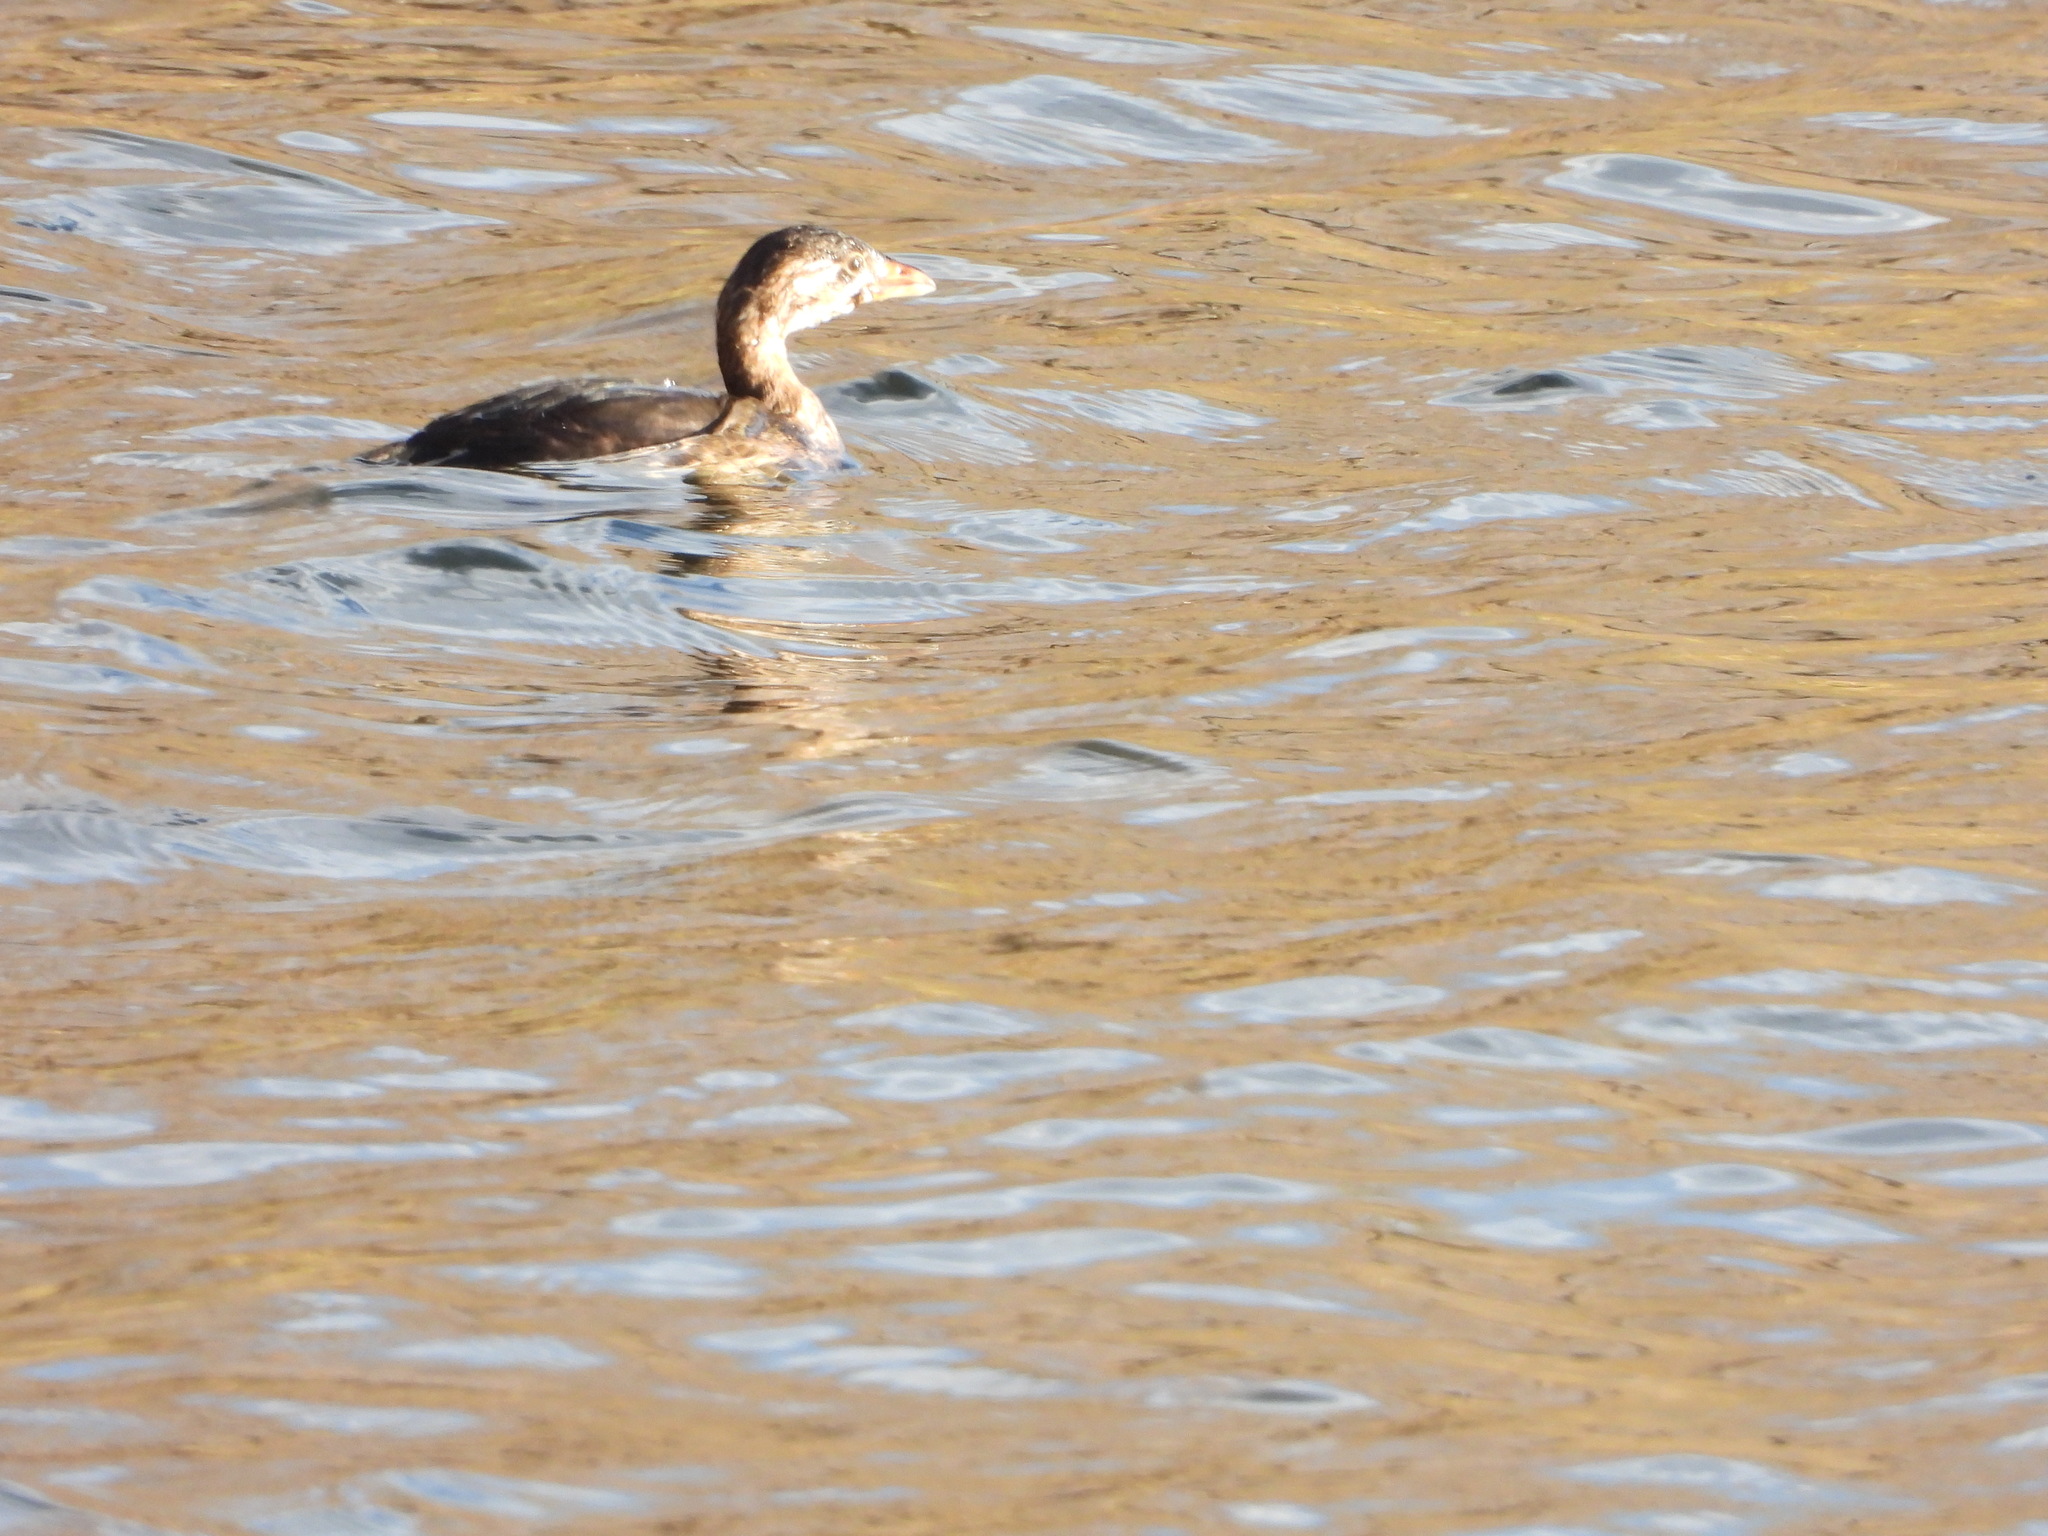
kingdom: Animalia
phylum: Chordata
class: Aves
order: Podicipediformes
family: Podicipedidae
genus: Podilymbus
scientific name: Podilymbus podiceps
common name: Pied-billed grebe
